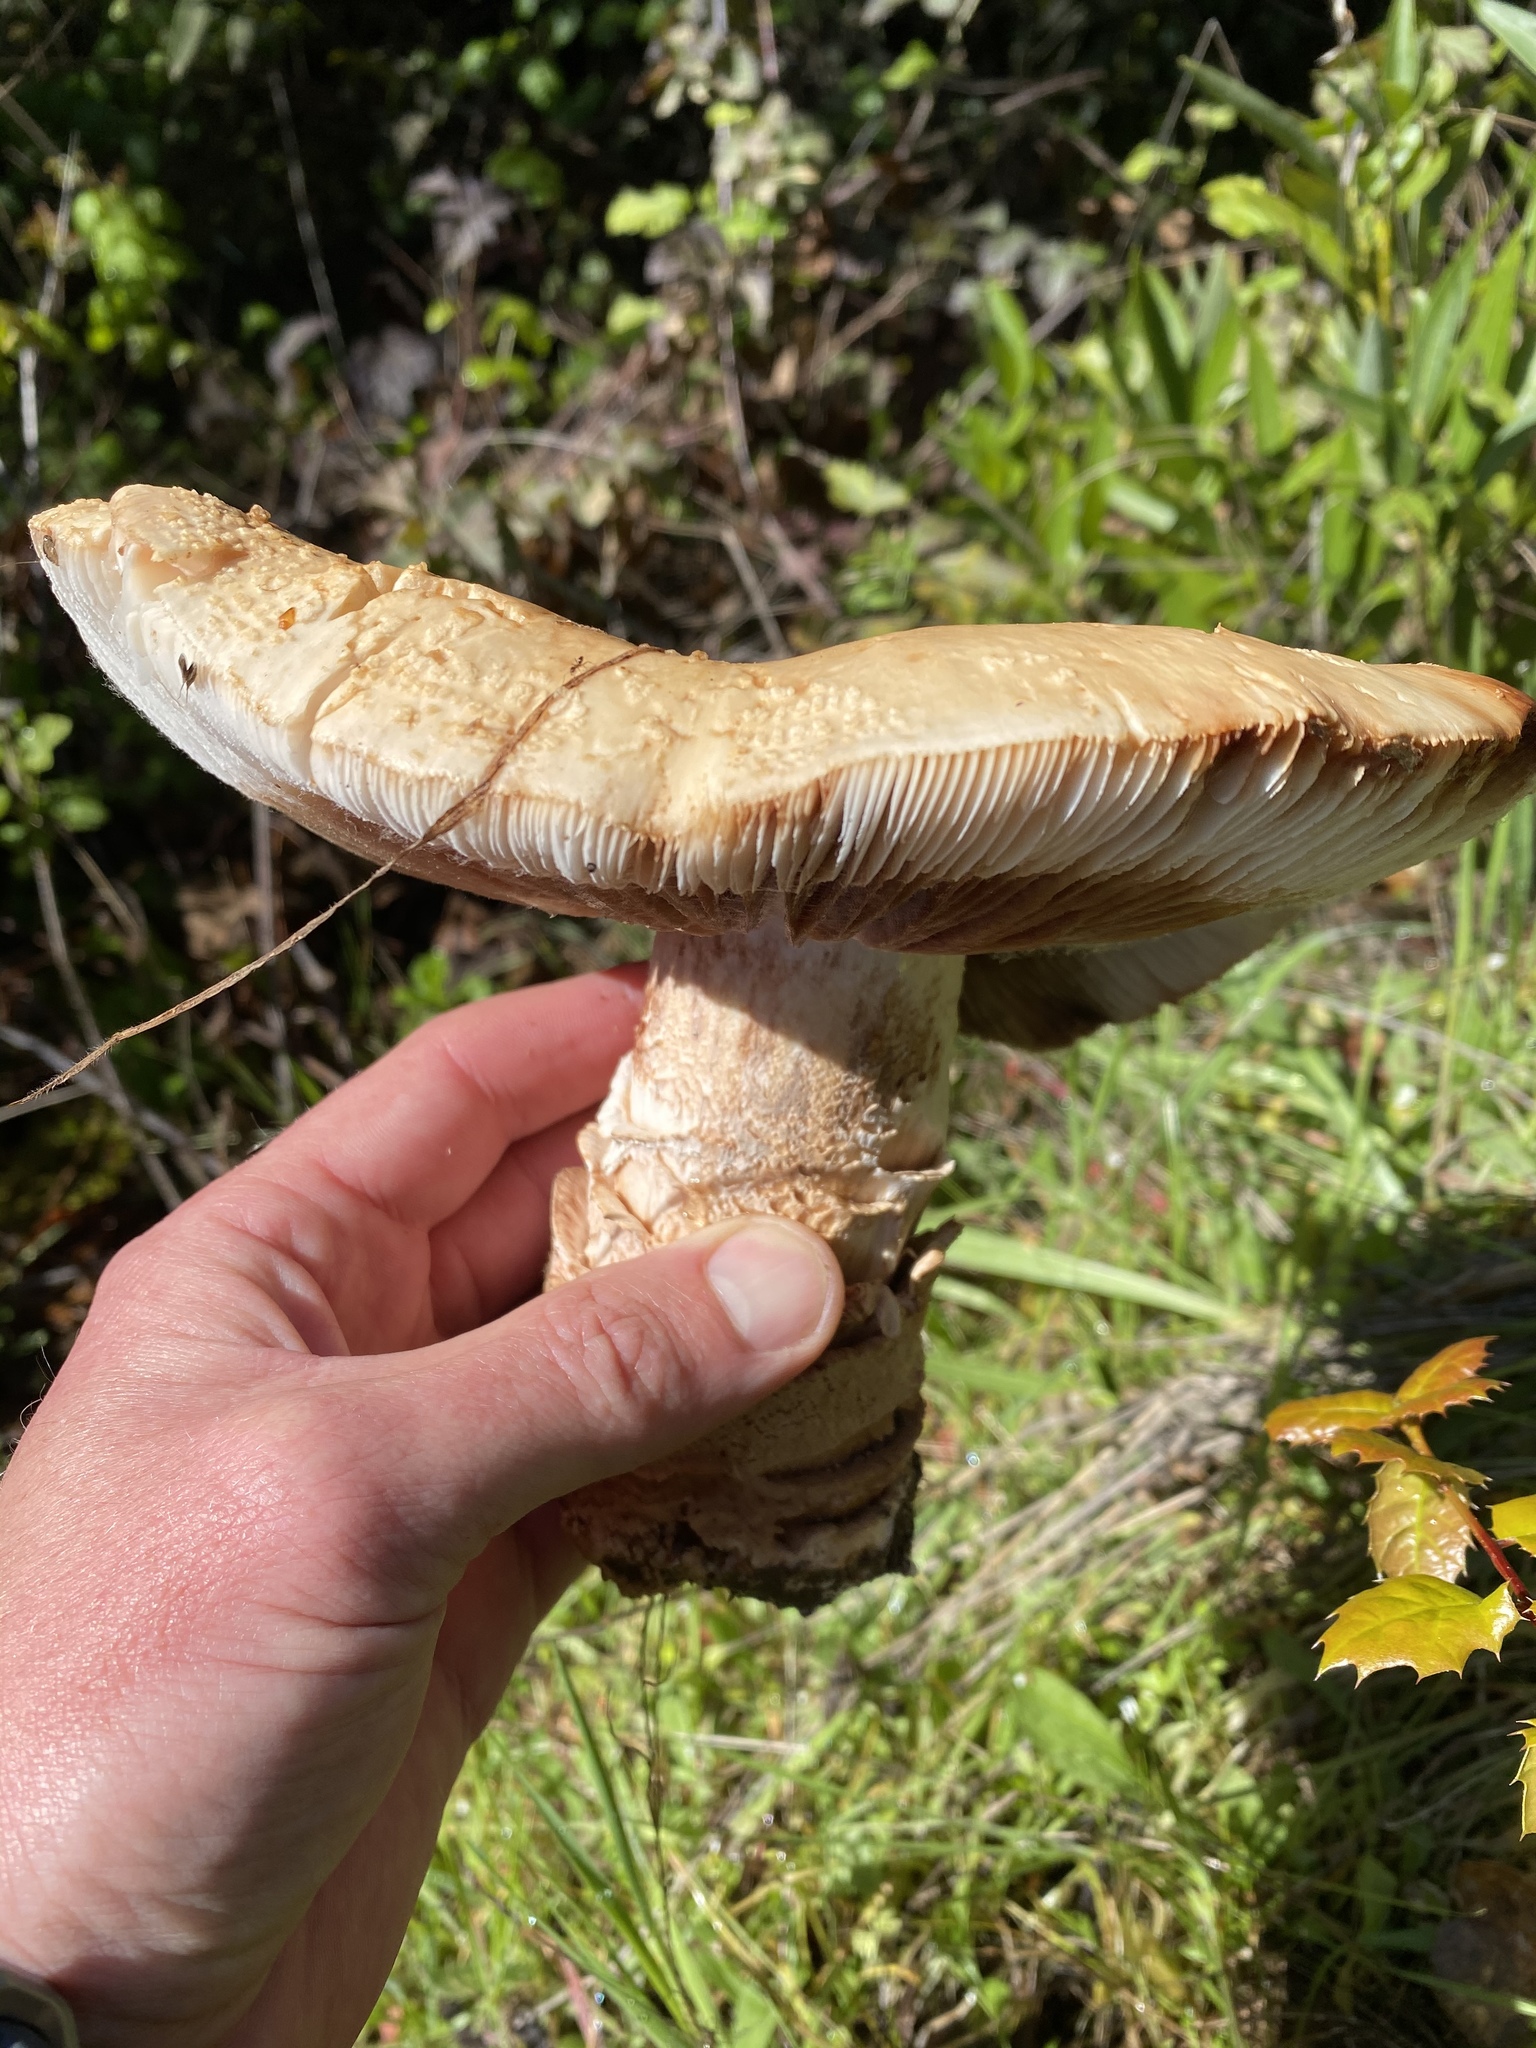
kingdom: Fungi
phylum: Basidiomycota
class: Agaricomycetes
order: Agaricales
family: Amanitaceae
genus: Amanita
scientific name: Amanita novinupta
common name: Blushing bride
